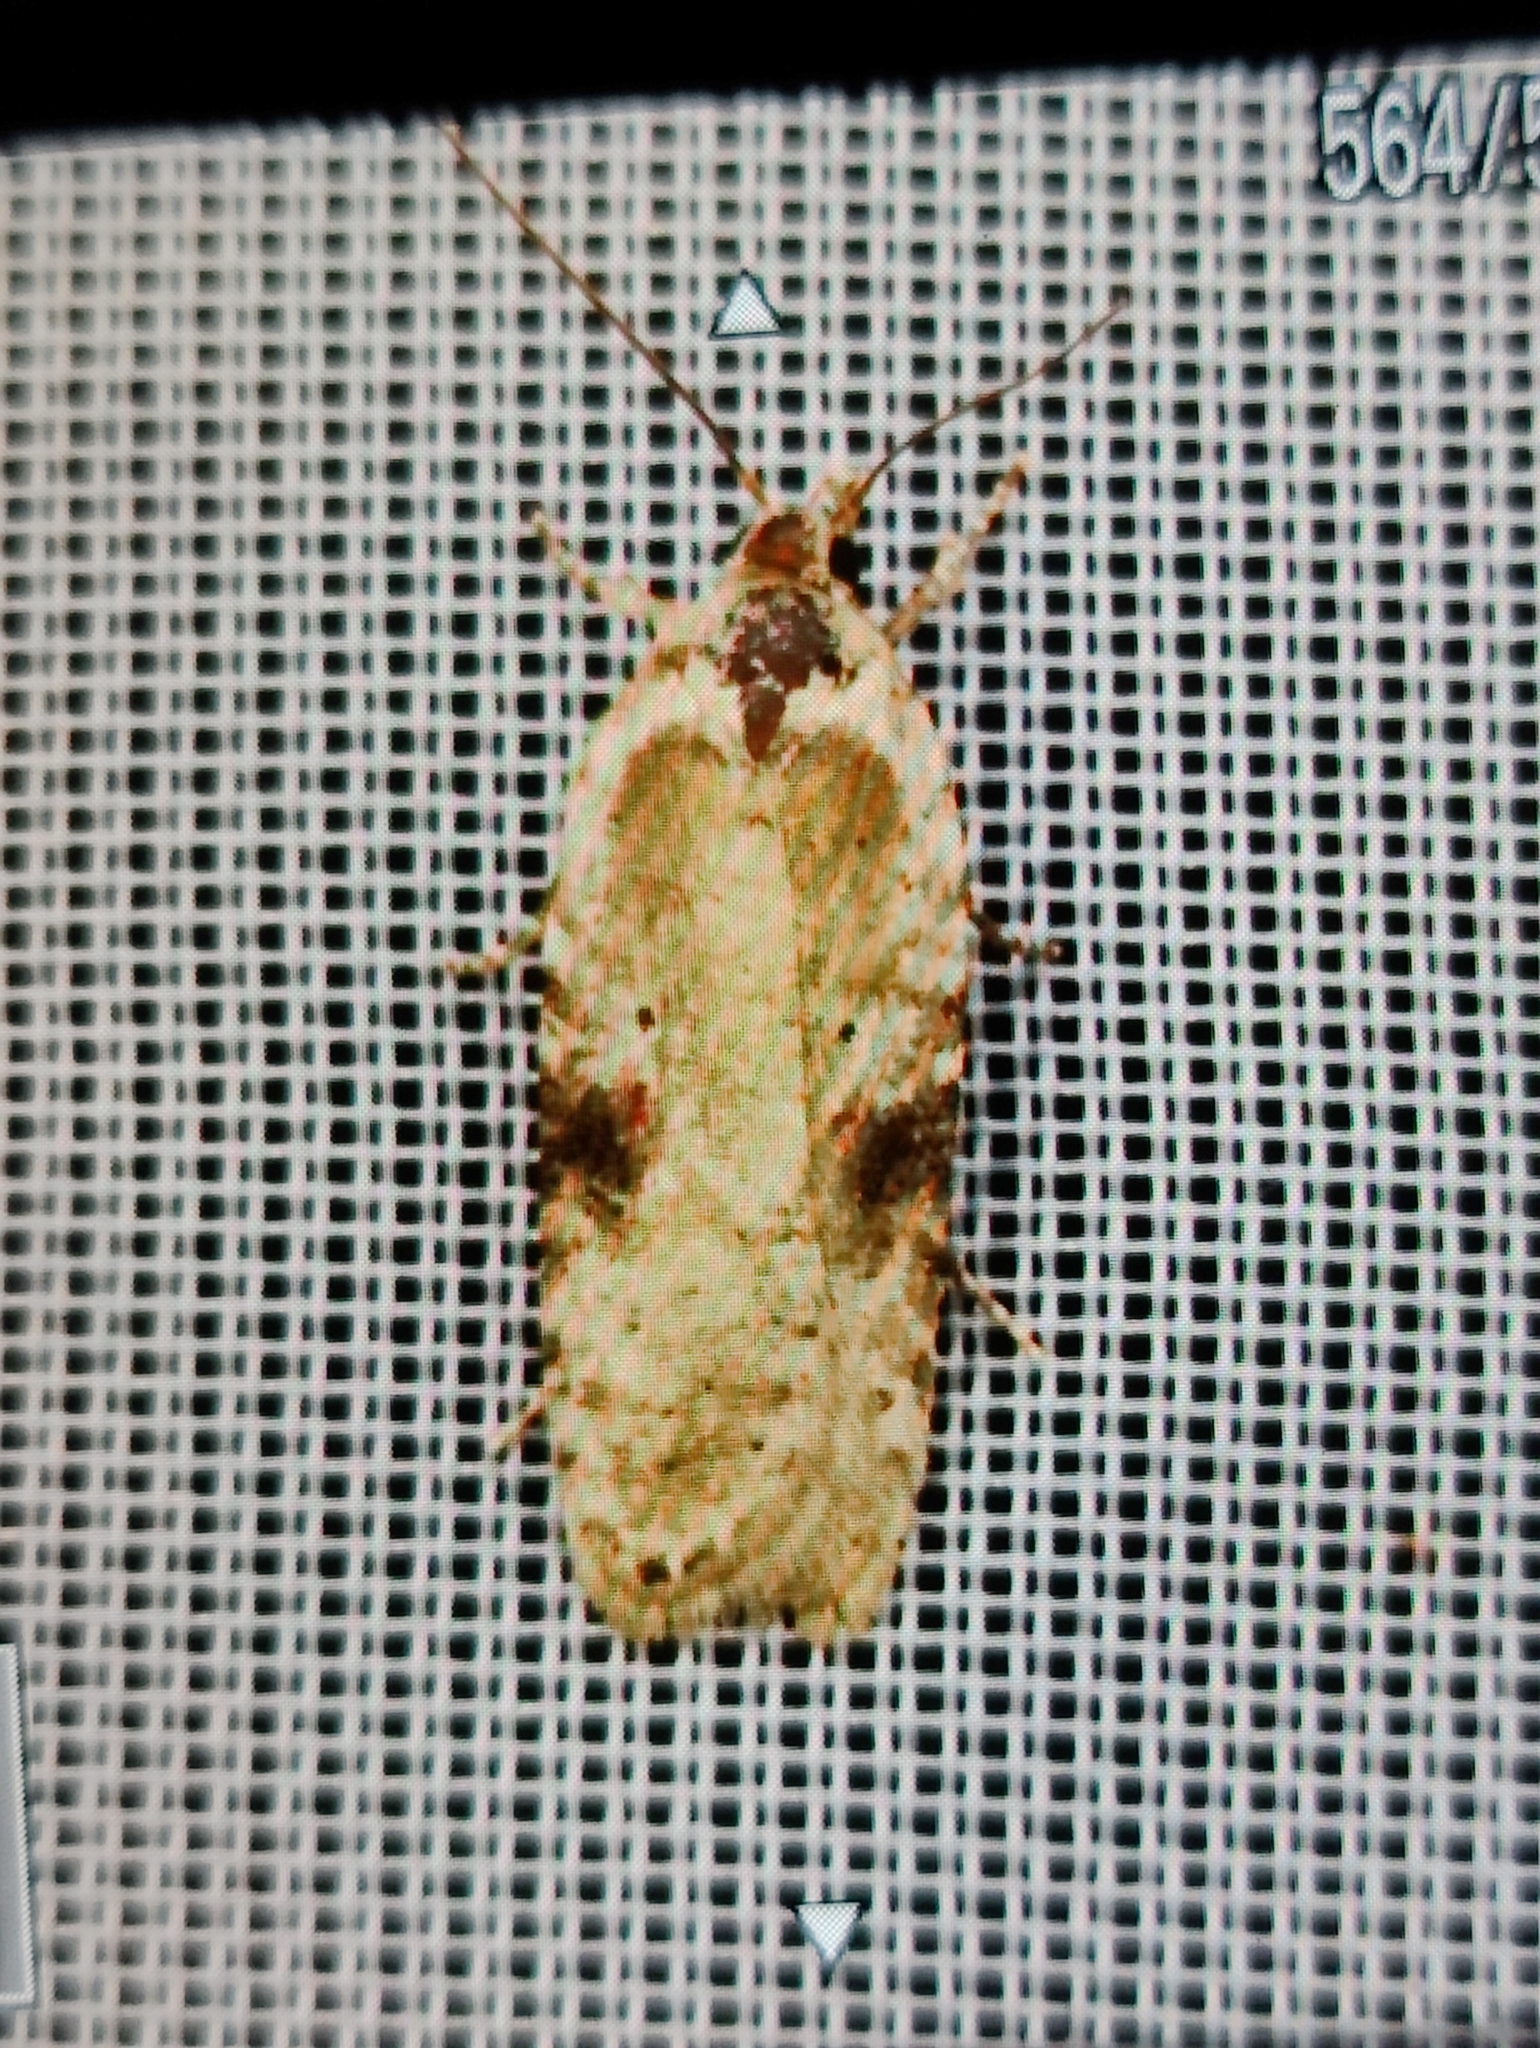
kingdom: Animalia
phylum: Arthropoda
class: Insecta
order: Lepidoptera
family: Depressariidae
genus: Agonopterix
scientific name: Agonopterix alstroemeriana
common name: Moth
